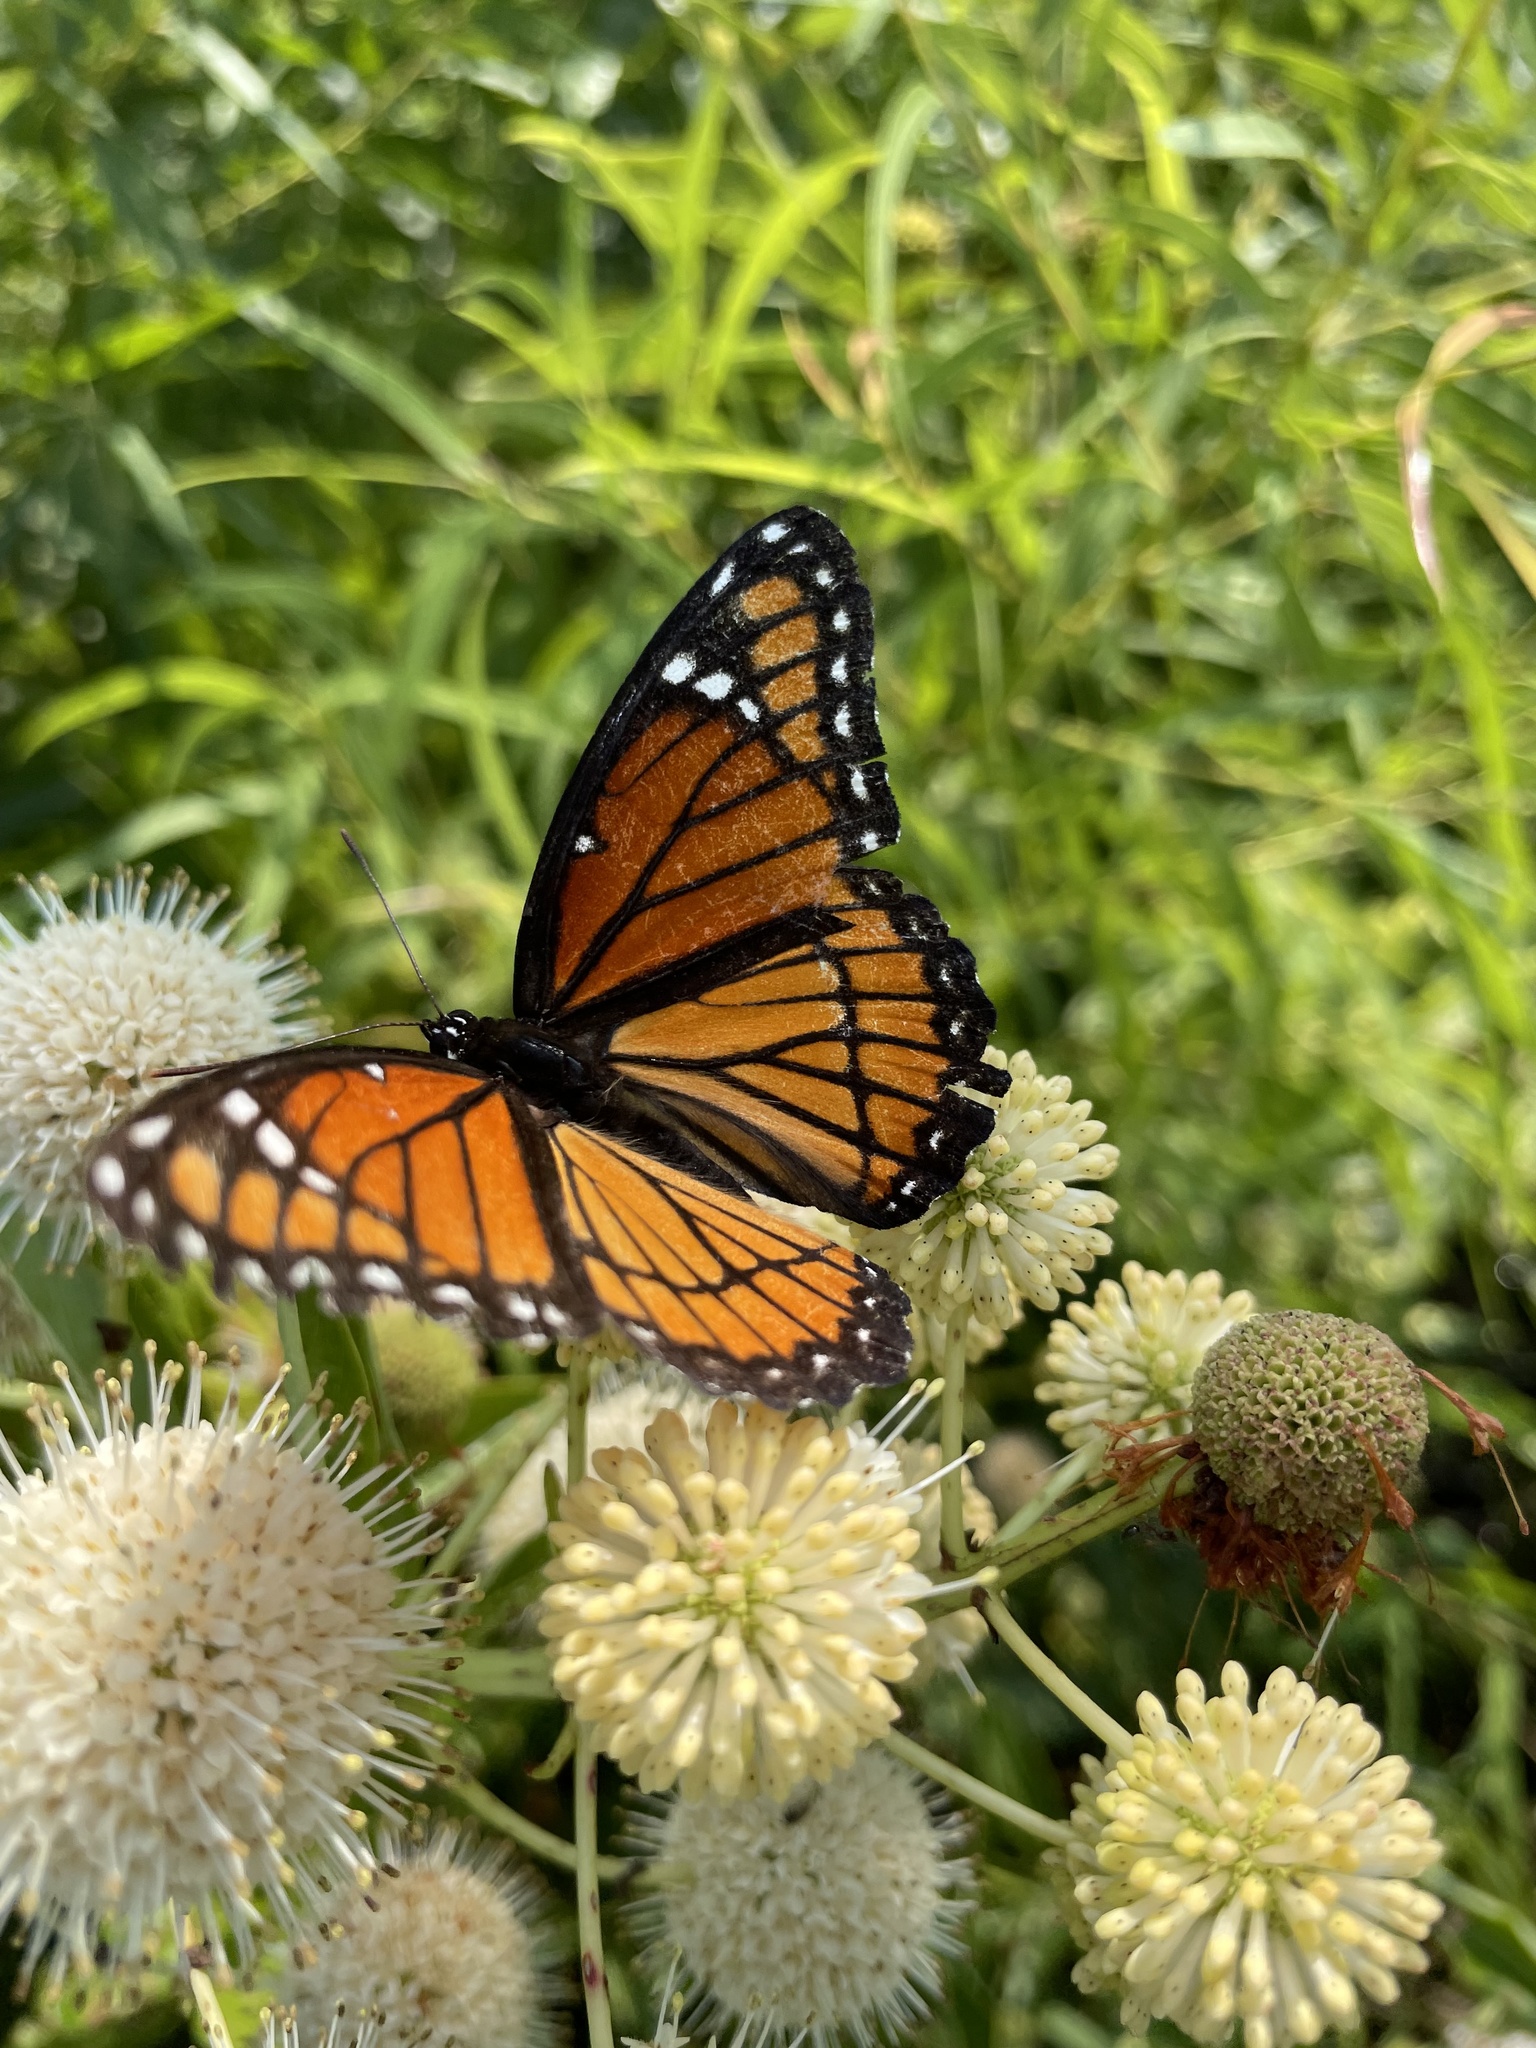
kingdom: Animalia
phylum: Arthropoda
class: Insecta
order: Lepidoptera
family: Nymphalidae
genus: Limenitis
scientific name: Limenitis archippus
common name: Viceroy
